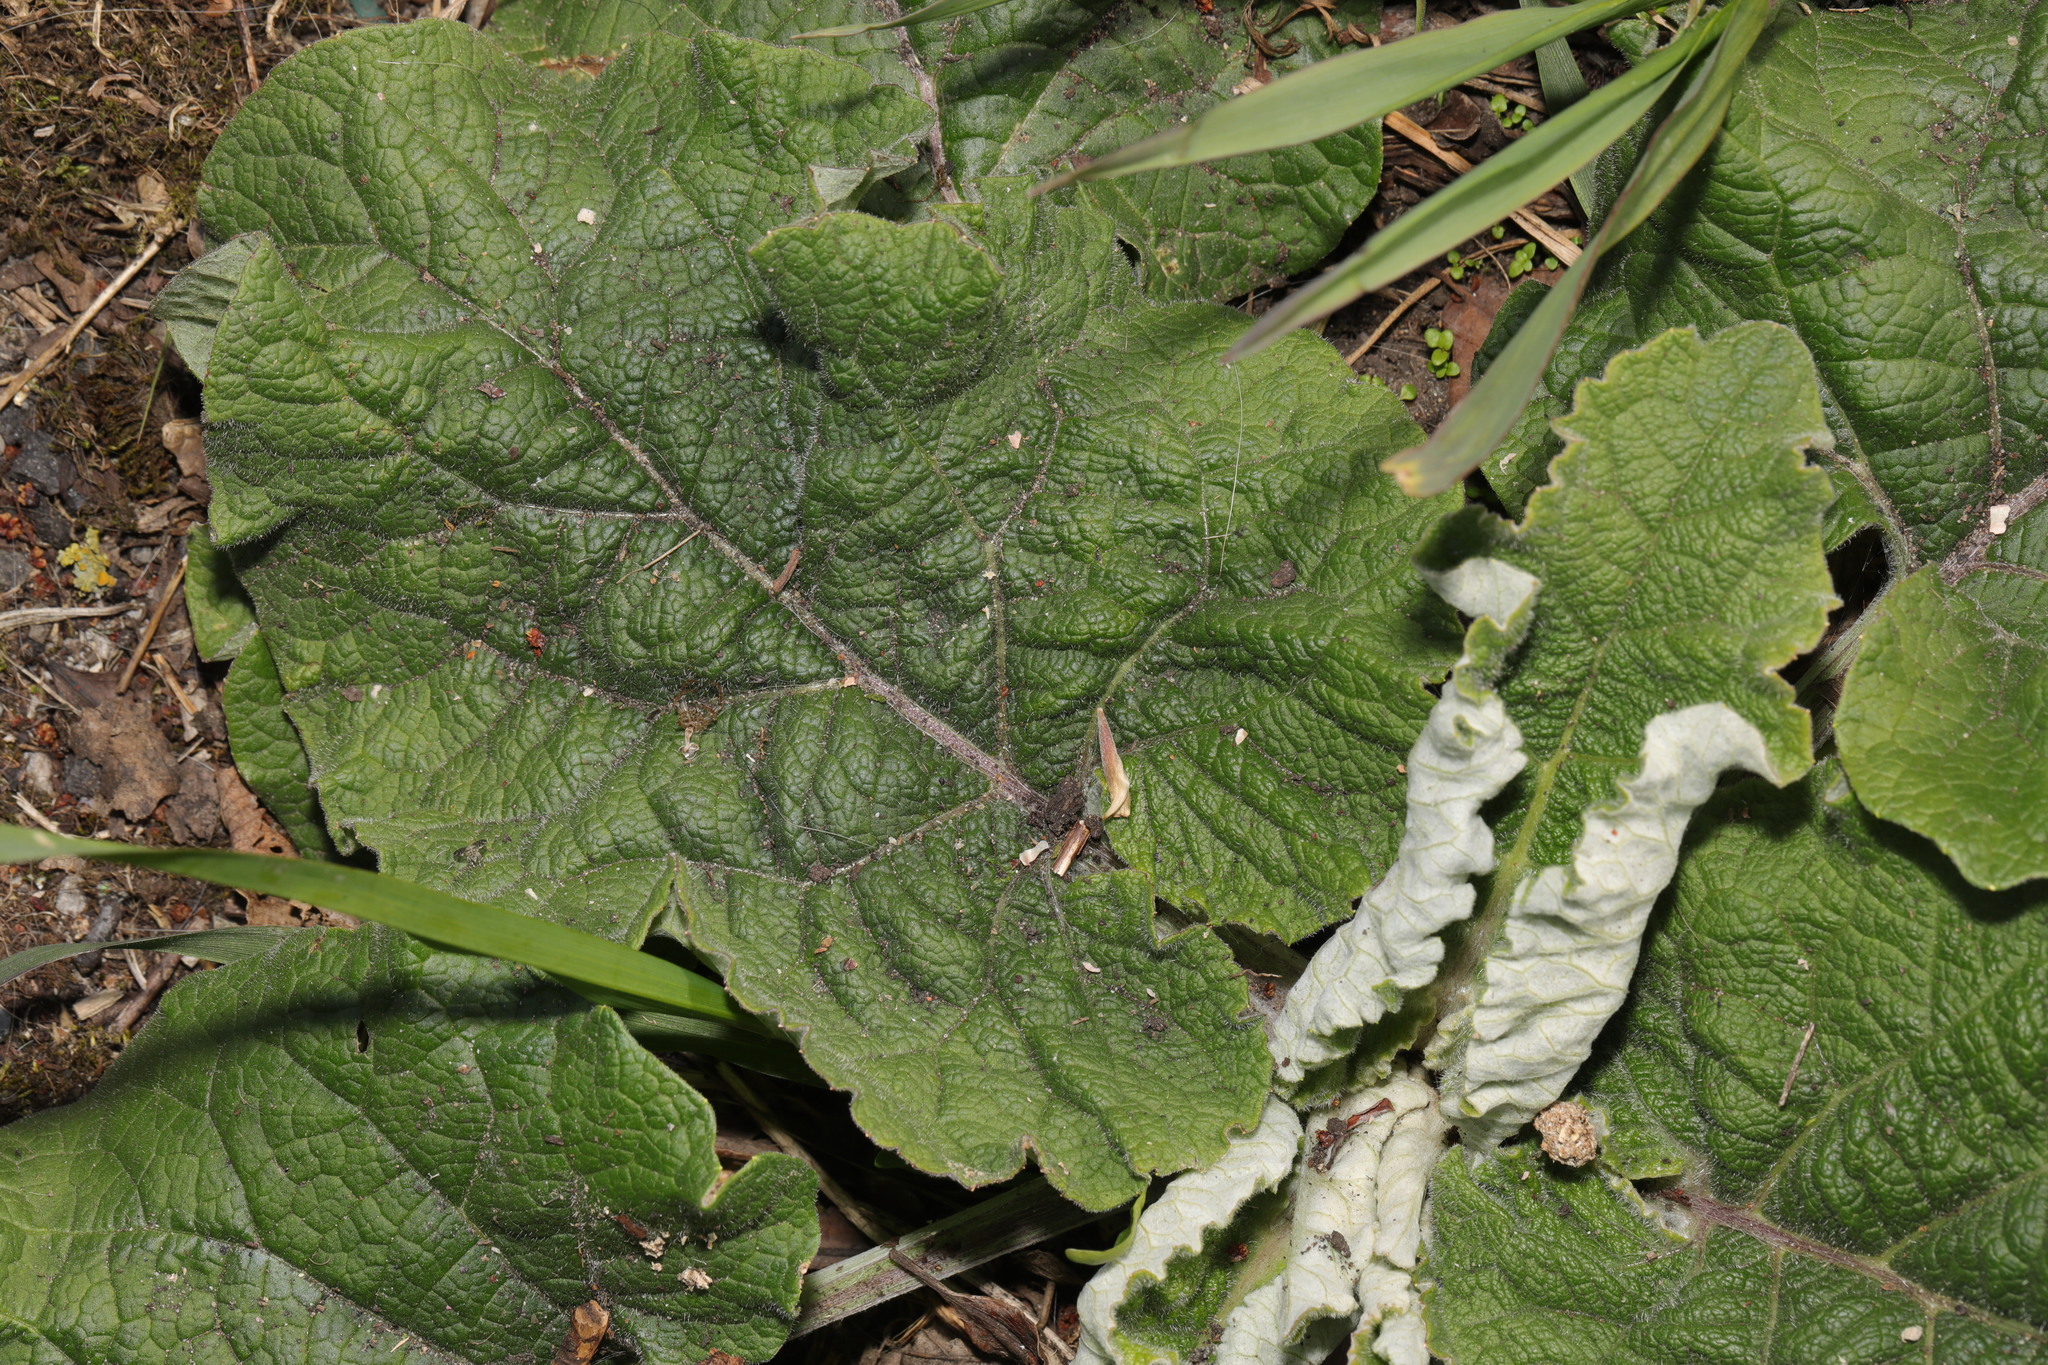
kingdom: Plantae
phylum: Tracheophyta
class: Magnoliopsida
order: Asterales
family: Asteraceae
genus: Arctium
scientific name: Arctium minus
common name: Lesser burdock
